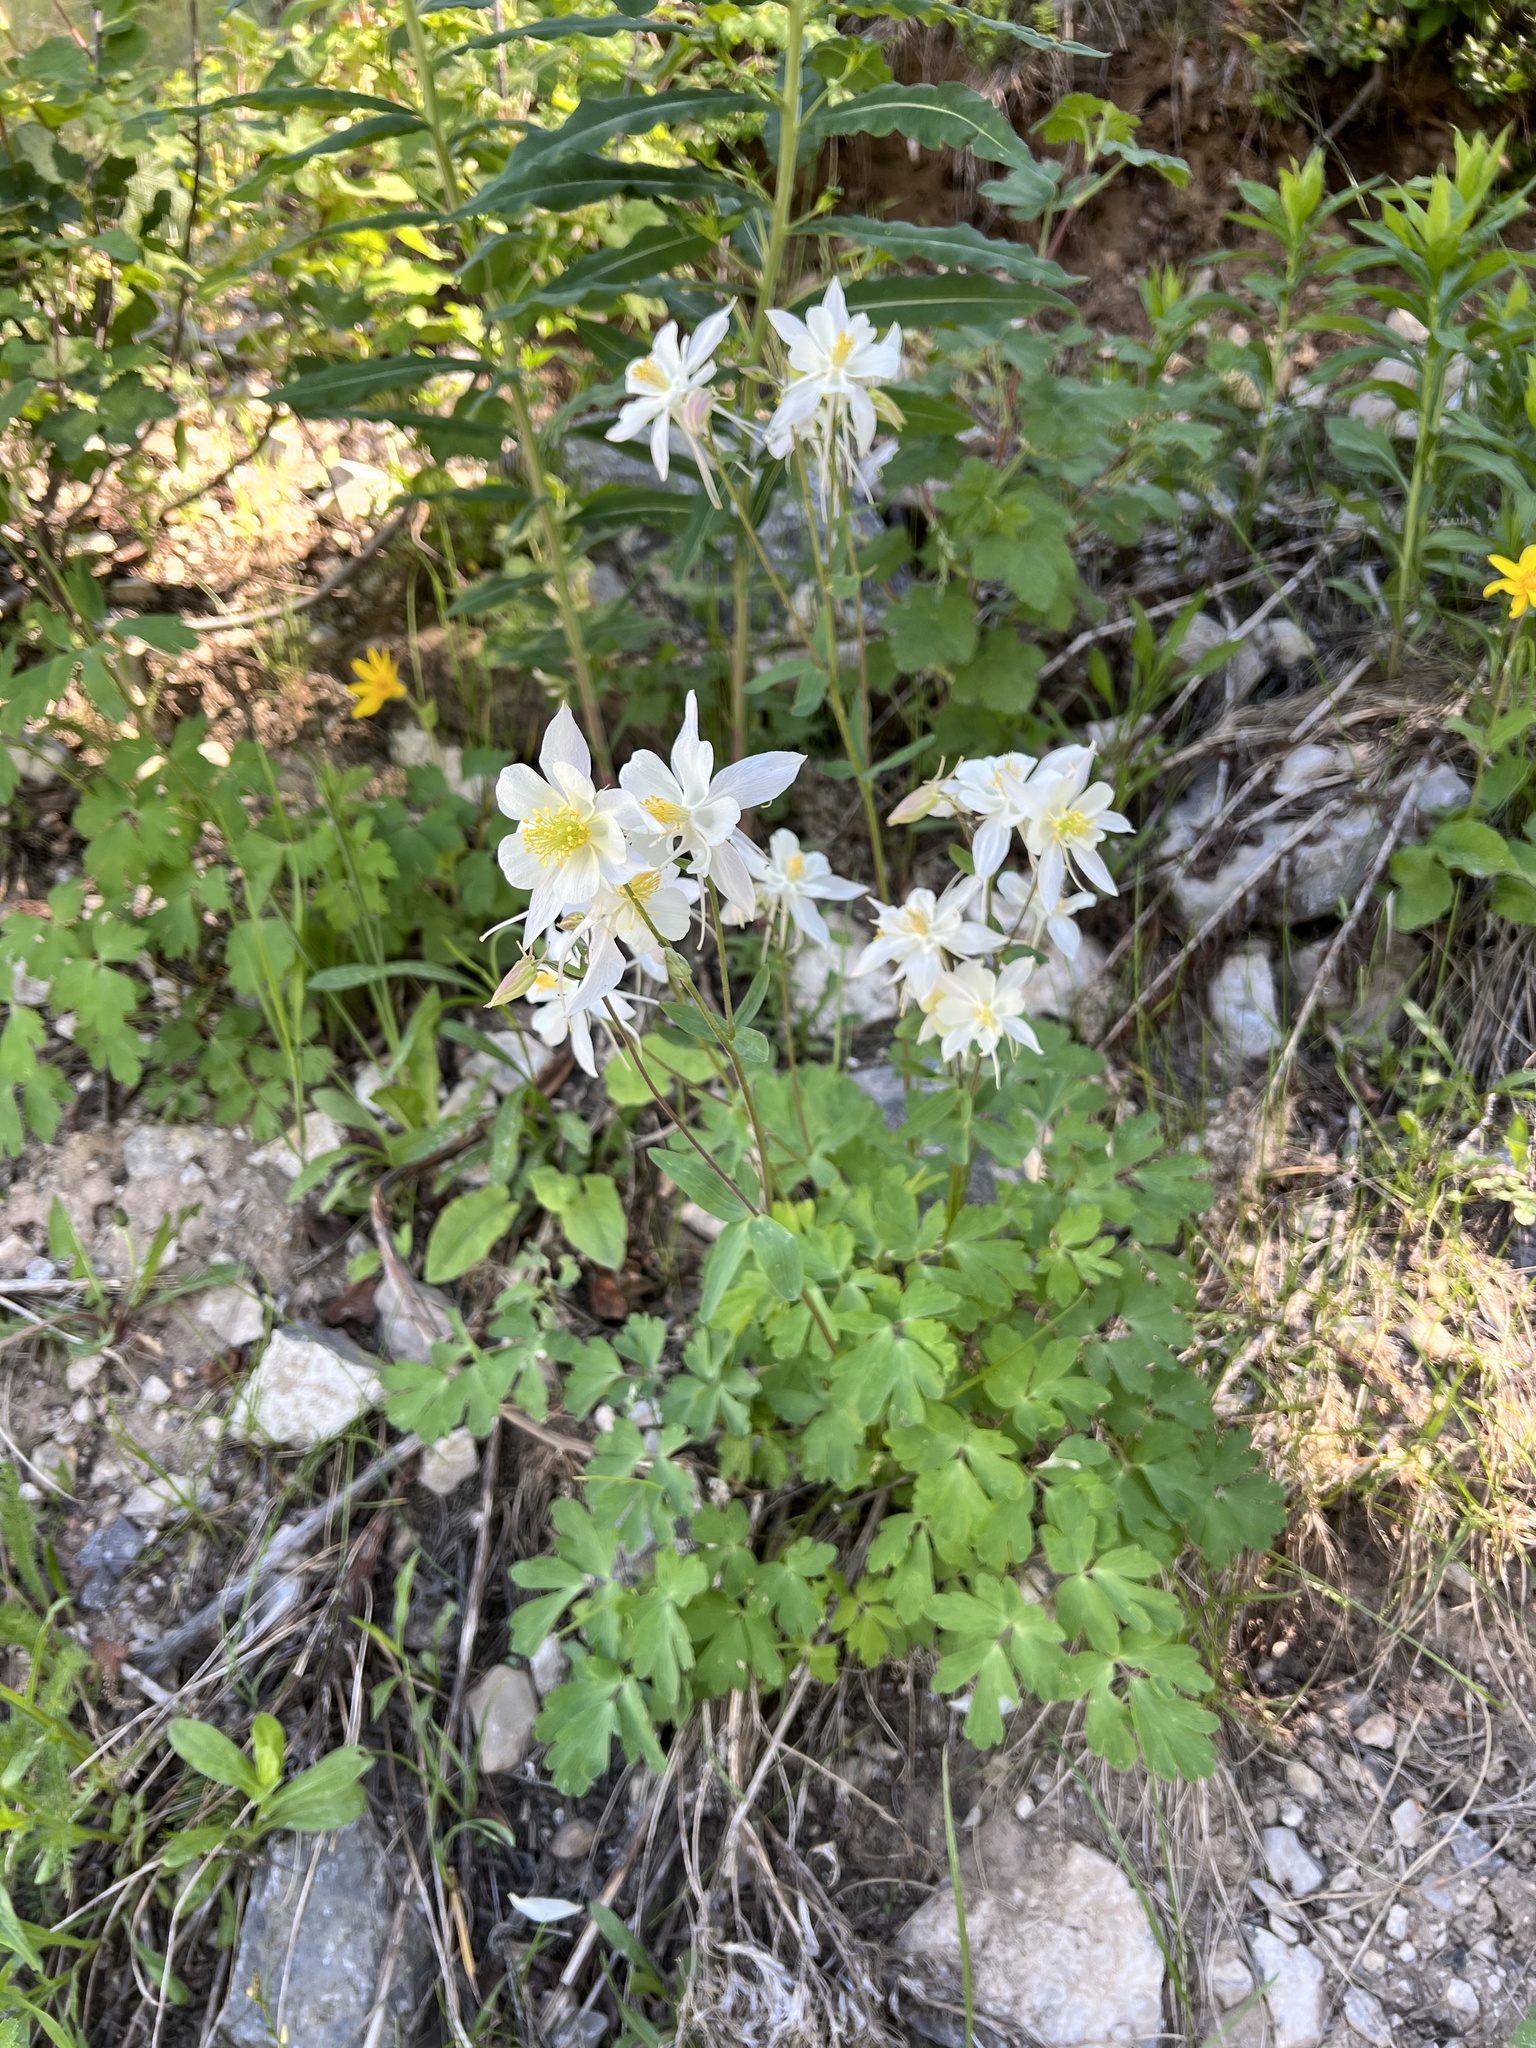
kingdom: Plantae
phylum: Tracheophyta
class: Magnoliopsida
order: Ranunculales
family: Ranunculaceae
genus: Aquilegia
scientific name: Aquilegia coerulea
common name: Rocky mountain columbine
